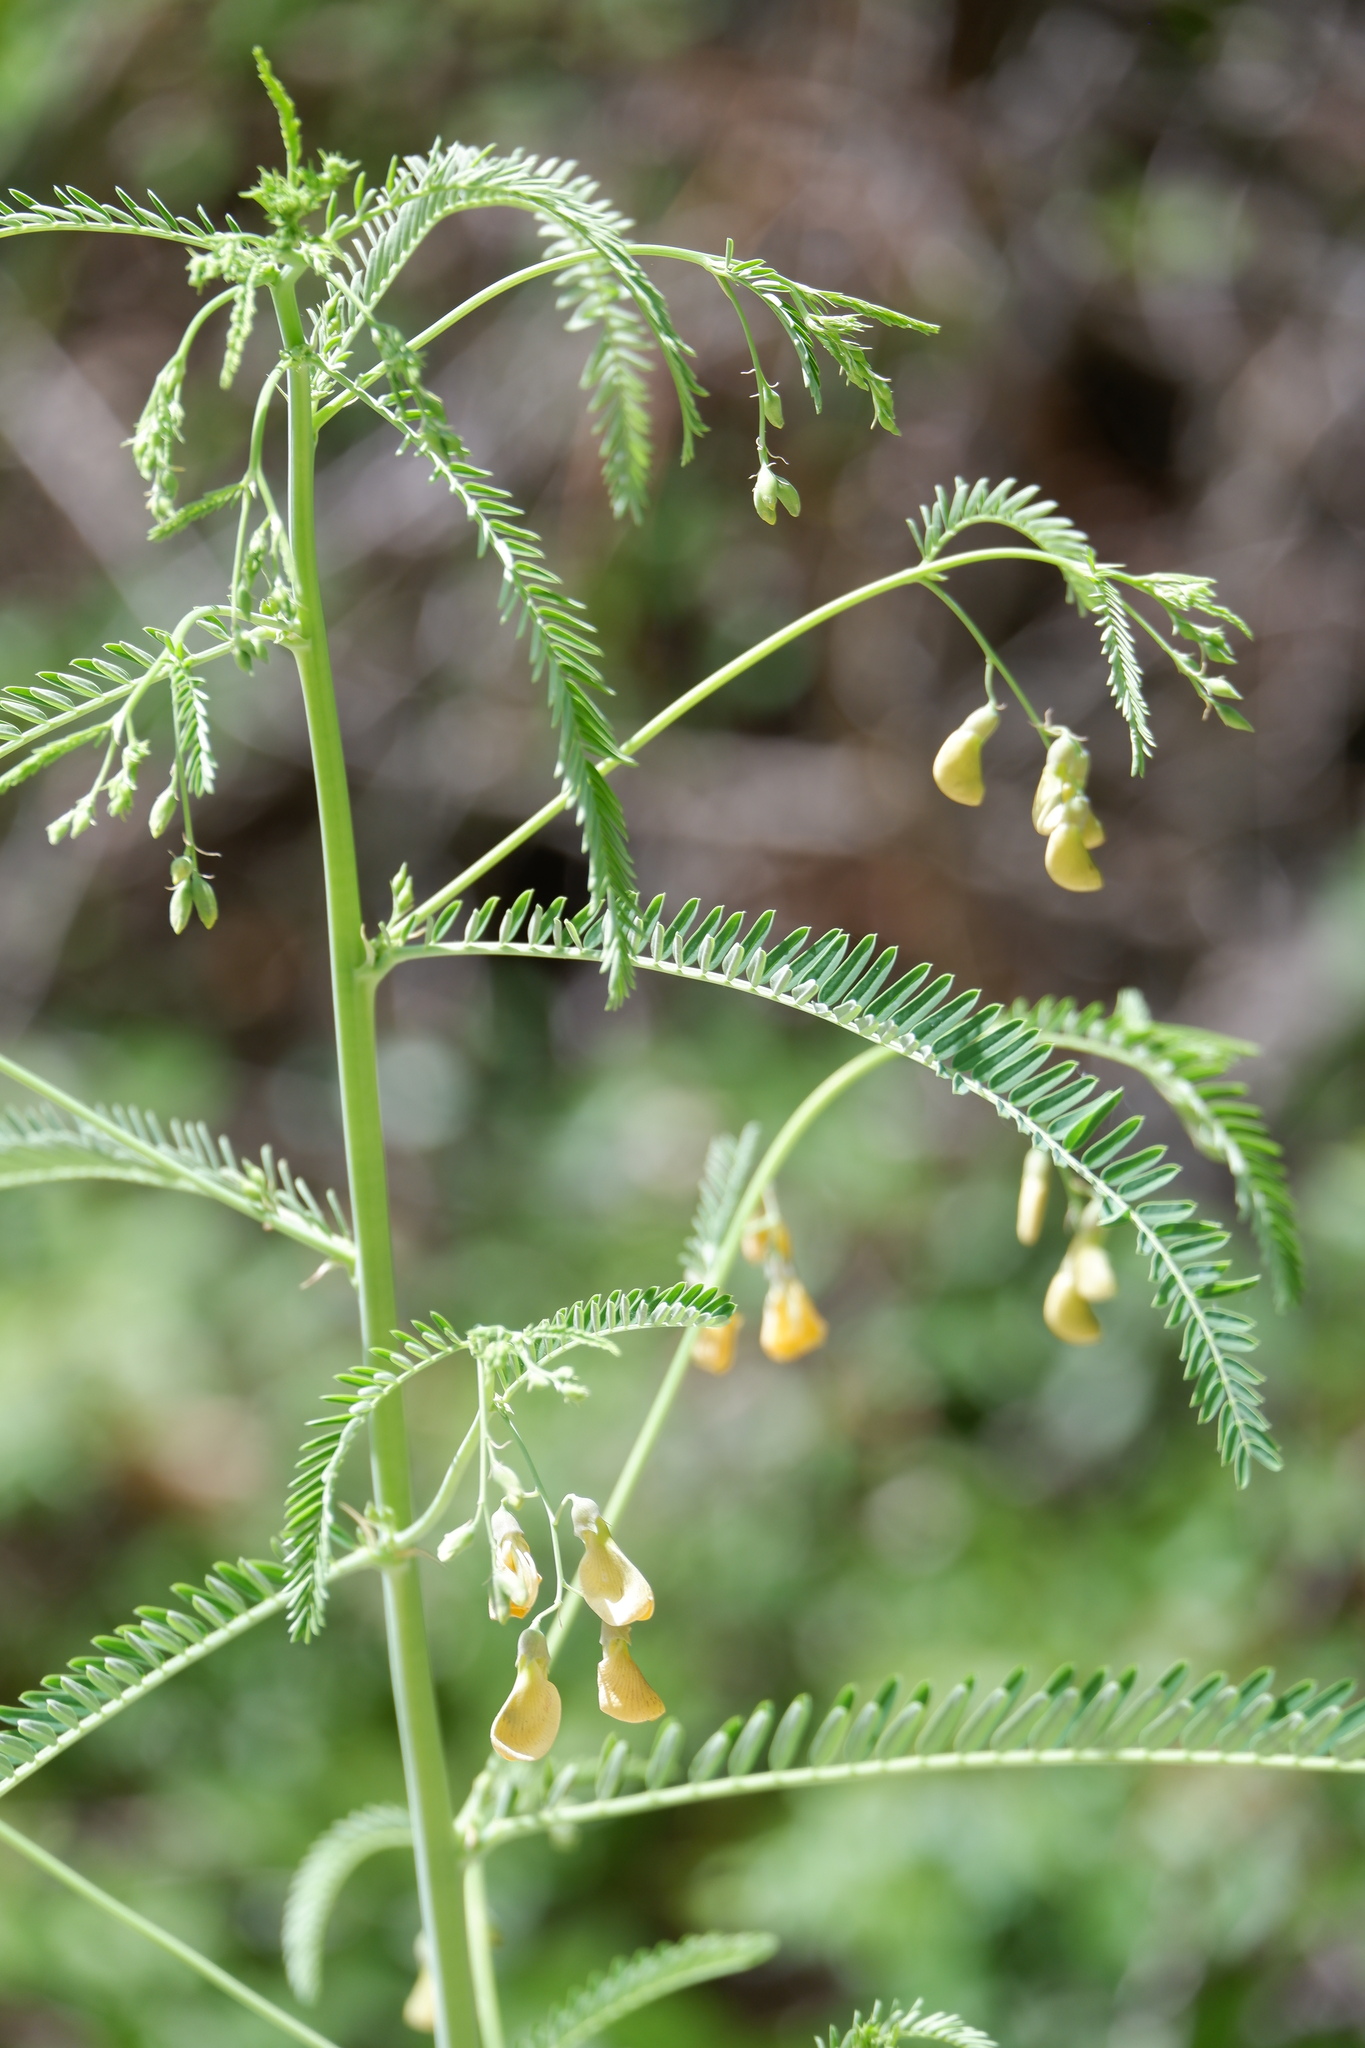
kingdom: Plantae
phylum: Tracheophyta
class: Magnoliopsida
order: Fabales
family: Fabaceae
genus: Sesbania
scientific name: Sesbania herbacea
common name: Bigpod sesbania
